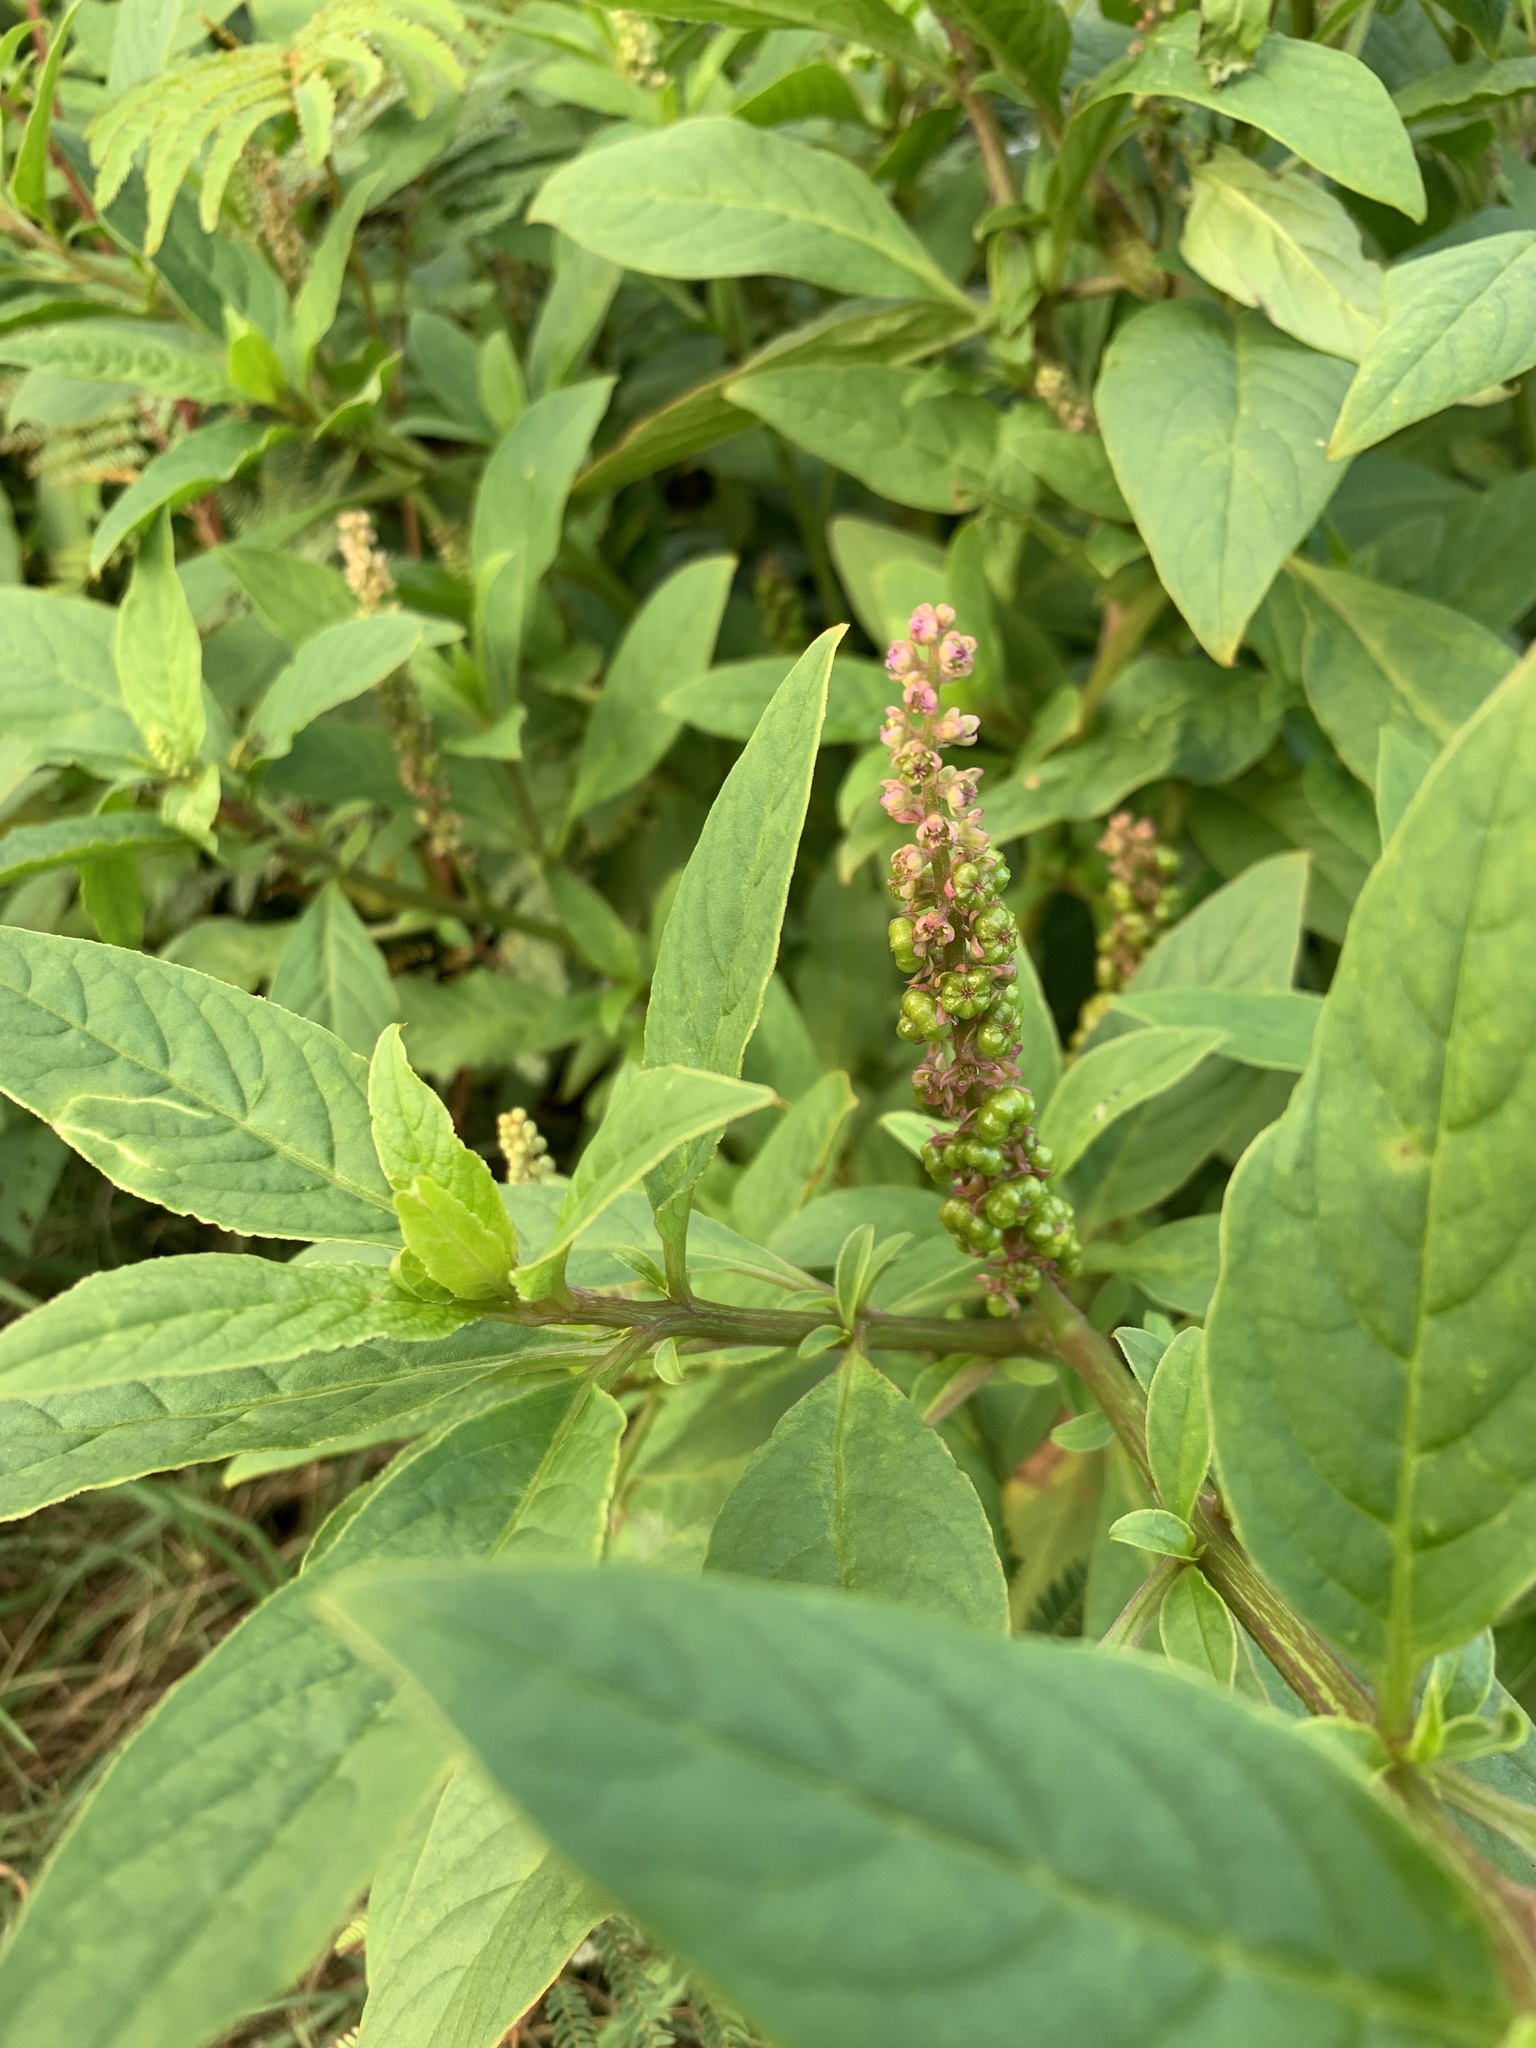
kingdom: Plantae
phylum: Tracheophyta
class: Magnoliopsida
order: Caryophyllales
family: Phytolaccaceae
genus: Phytolacca
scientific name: Phytolacca icosandra
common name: Button pokeweed
